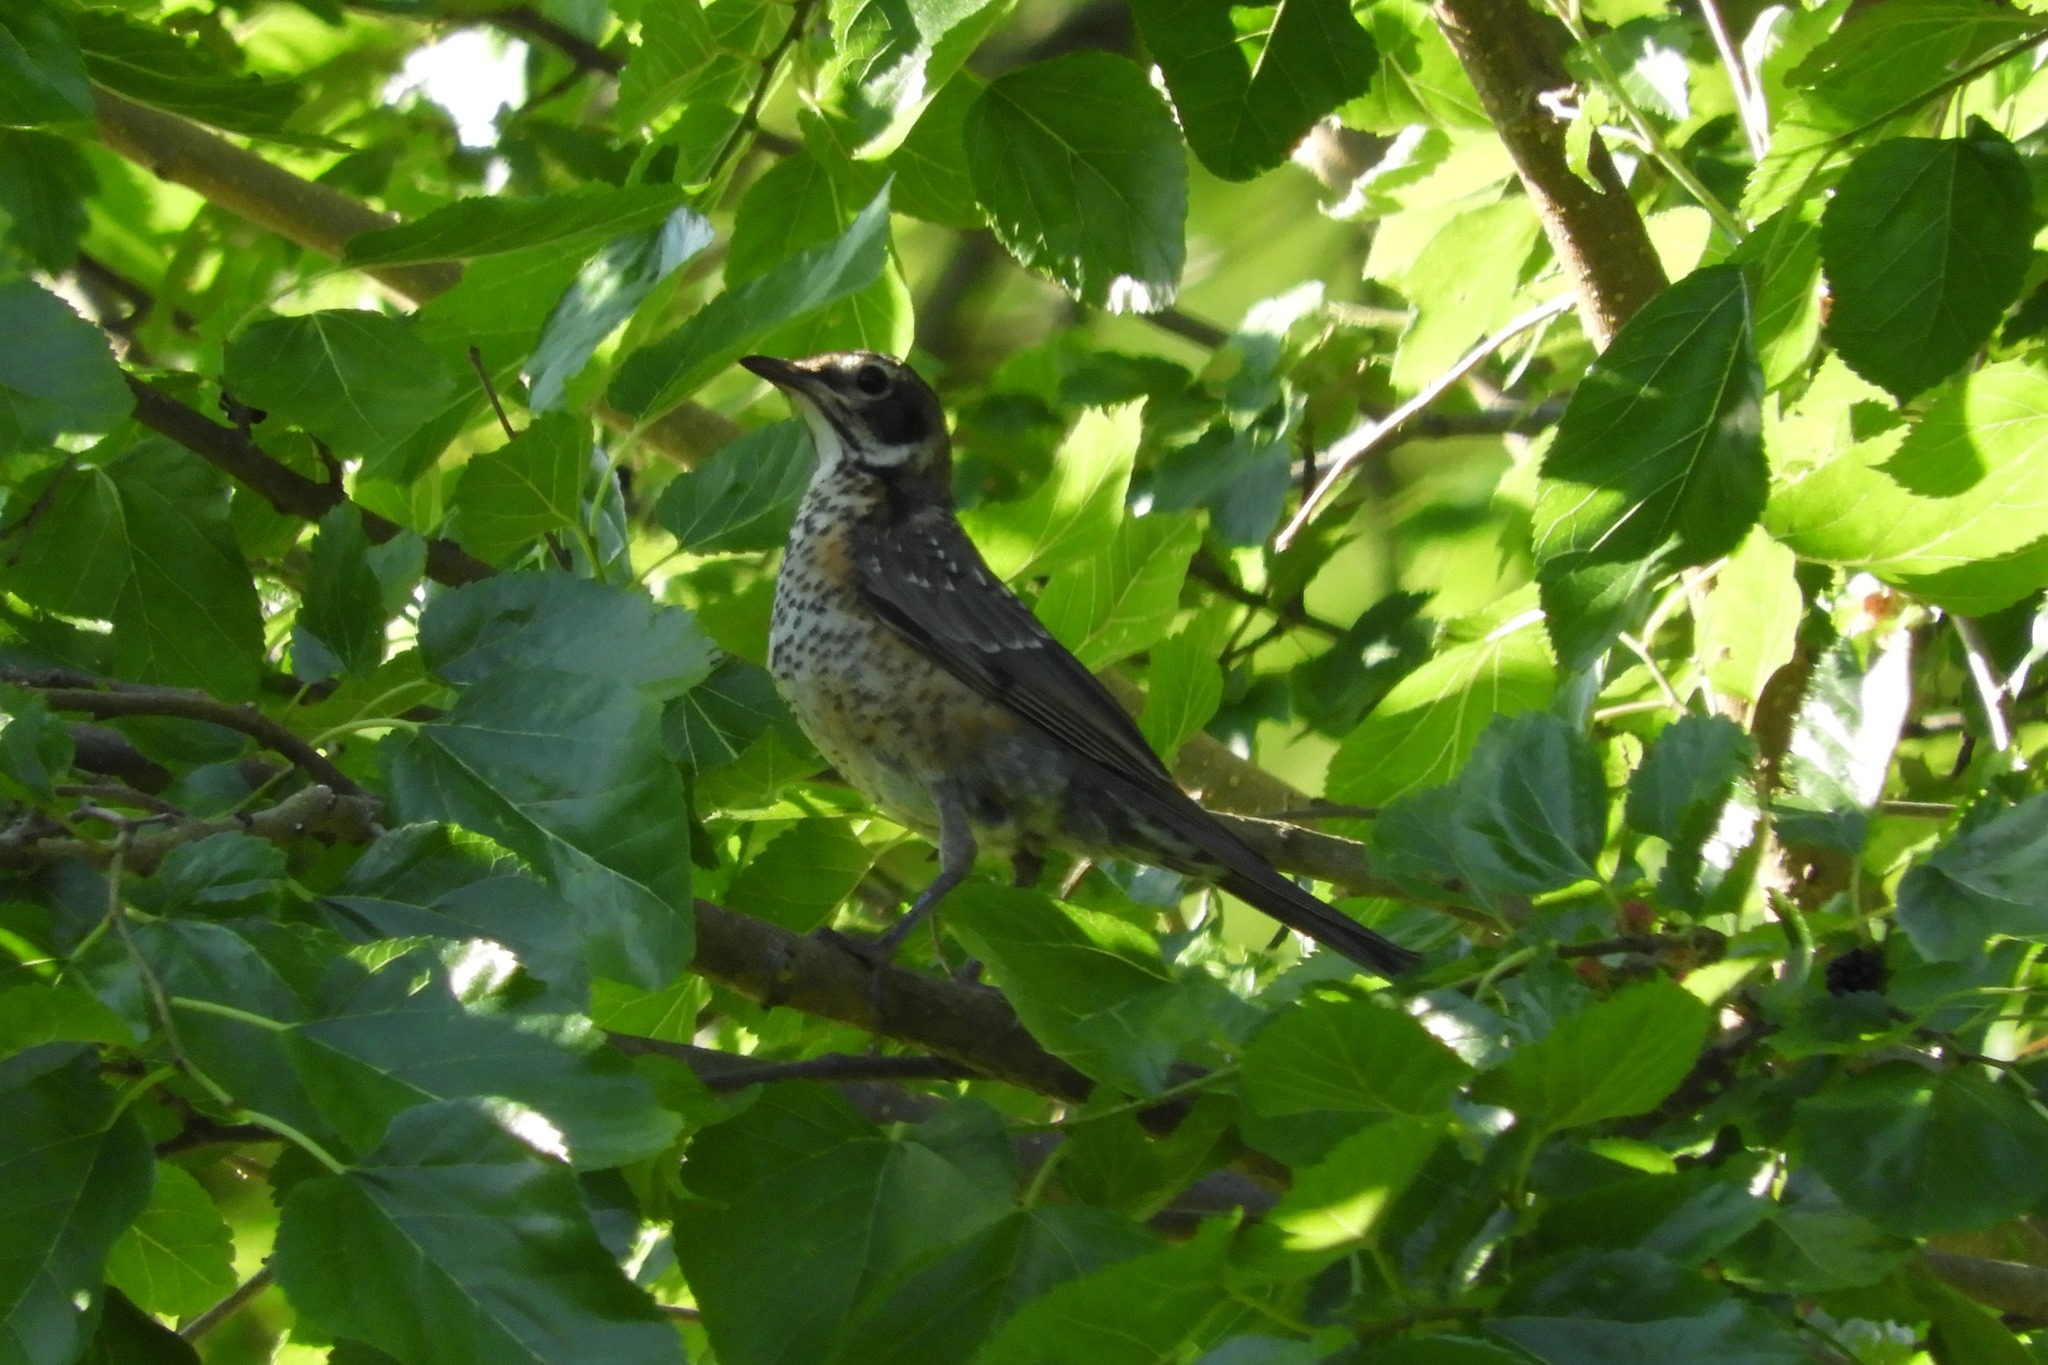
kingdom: Animalia
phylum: Chordata
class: Aves
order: Passeriformes
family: Turdidae
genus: Turdus
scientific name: Turdus migratorius
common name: American robin
